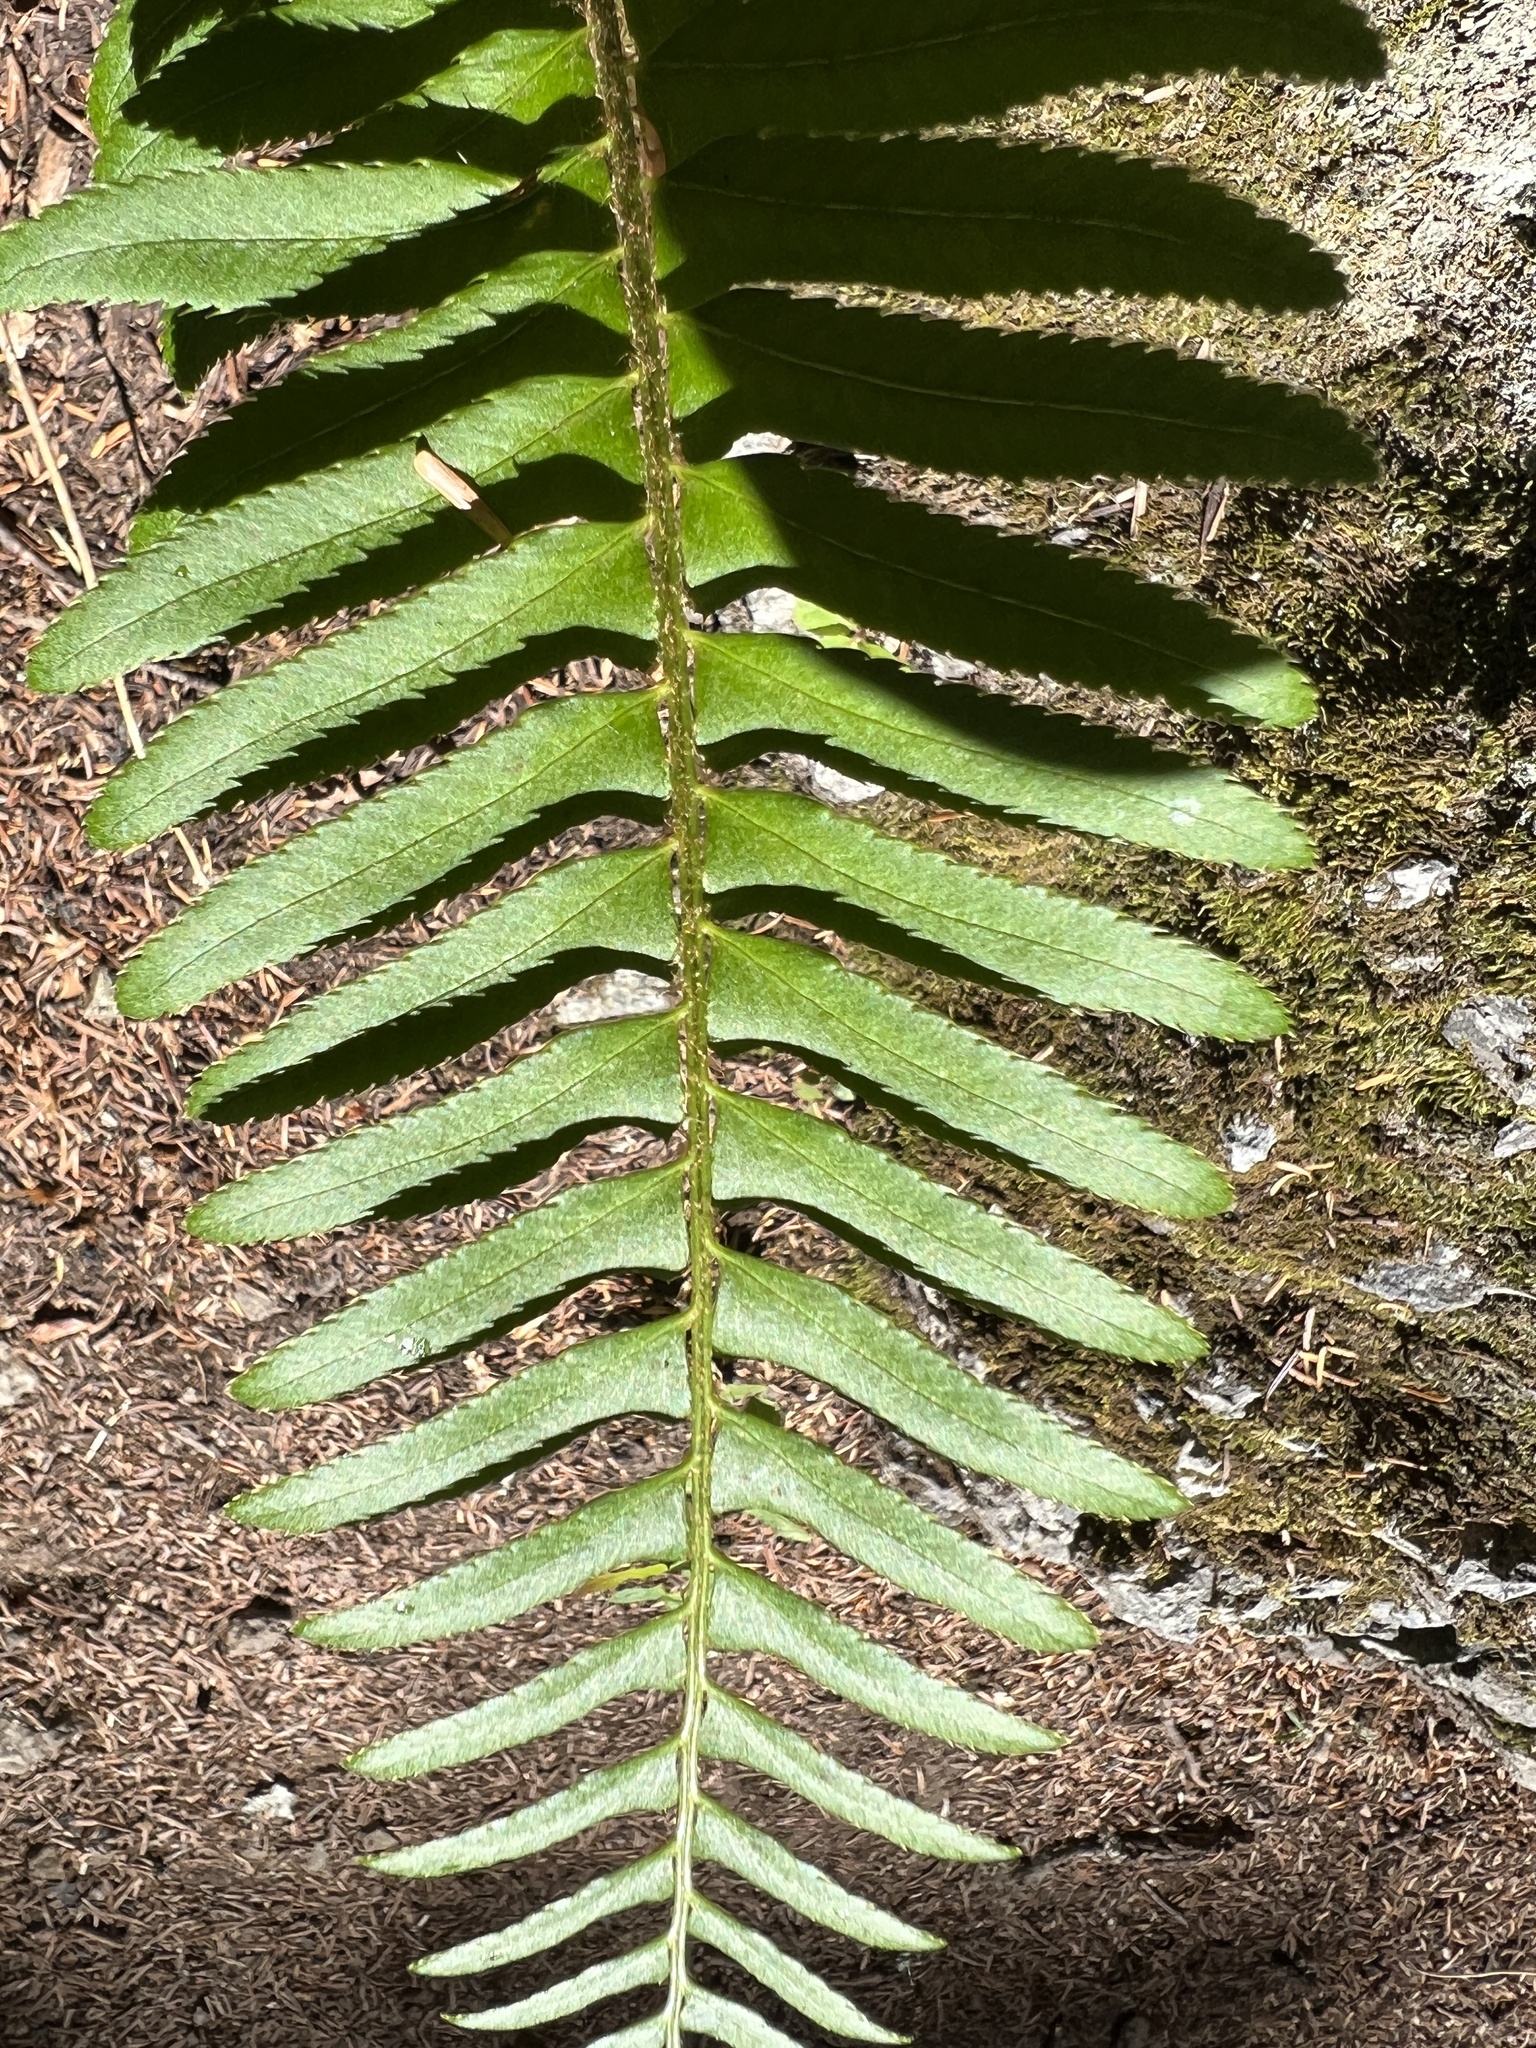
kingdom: Plantae
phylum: Tracheophyta
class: Polypodiopsida
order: Polypodiales
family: Dryopteridaceae
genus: Polystichum
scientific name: Polystichum munitum
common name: Western sword-fern
